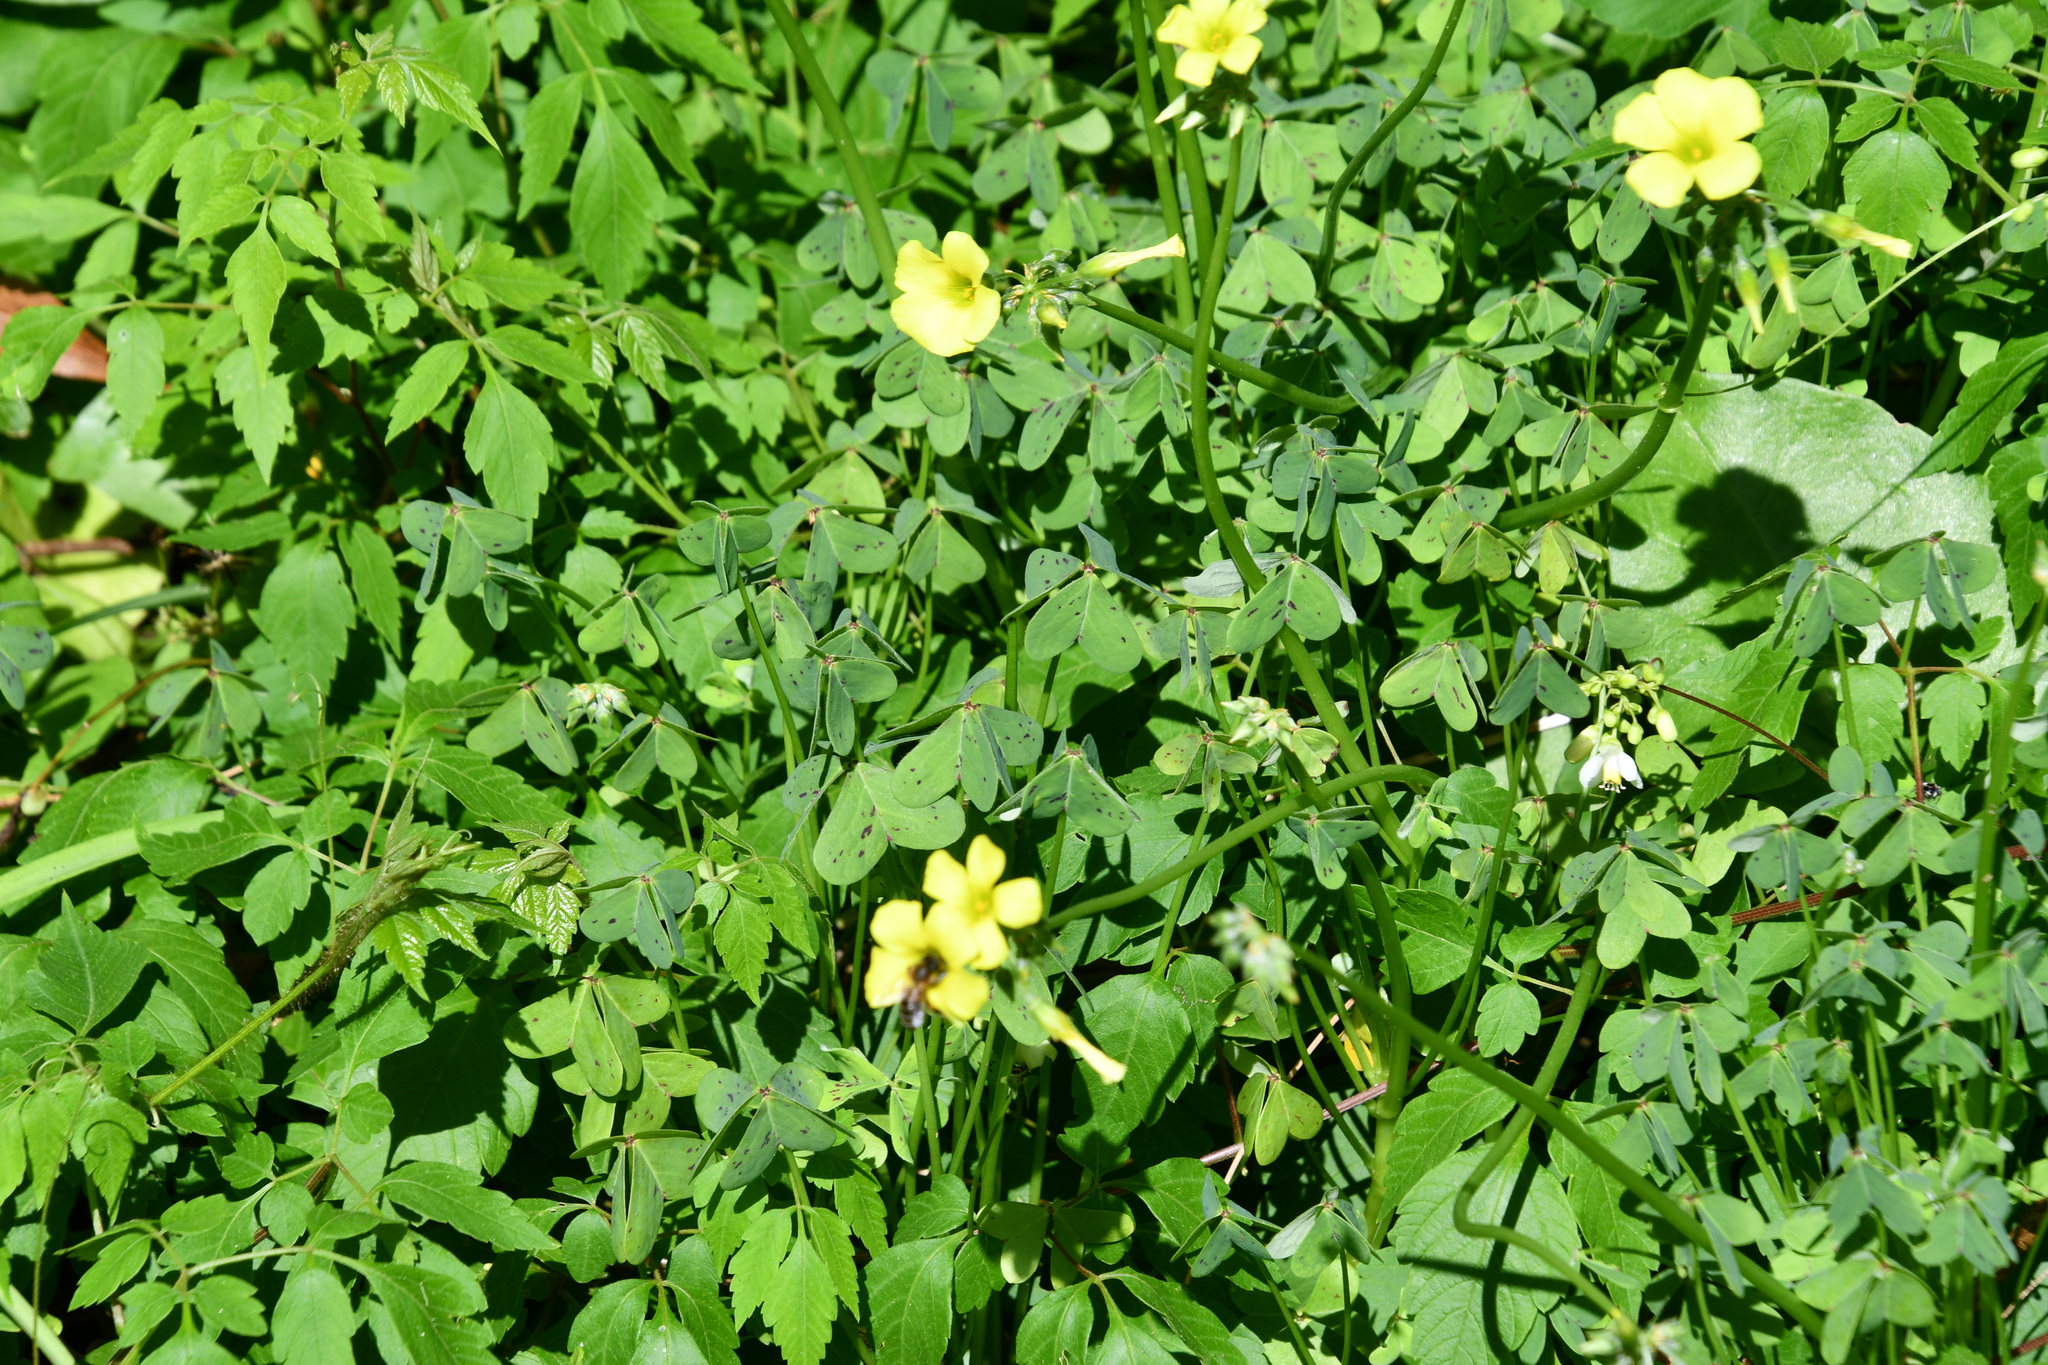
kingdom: Plantae
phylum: Tracheophyta
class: Magnoliopsida
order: Oxalidales
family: Oxalidaceae
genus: Oxalis
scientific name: Oxalis pes-caprae
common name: Bermuda-buttercup
